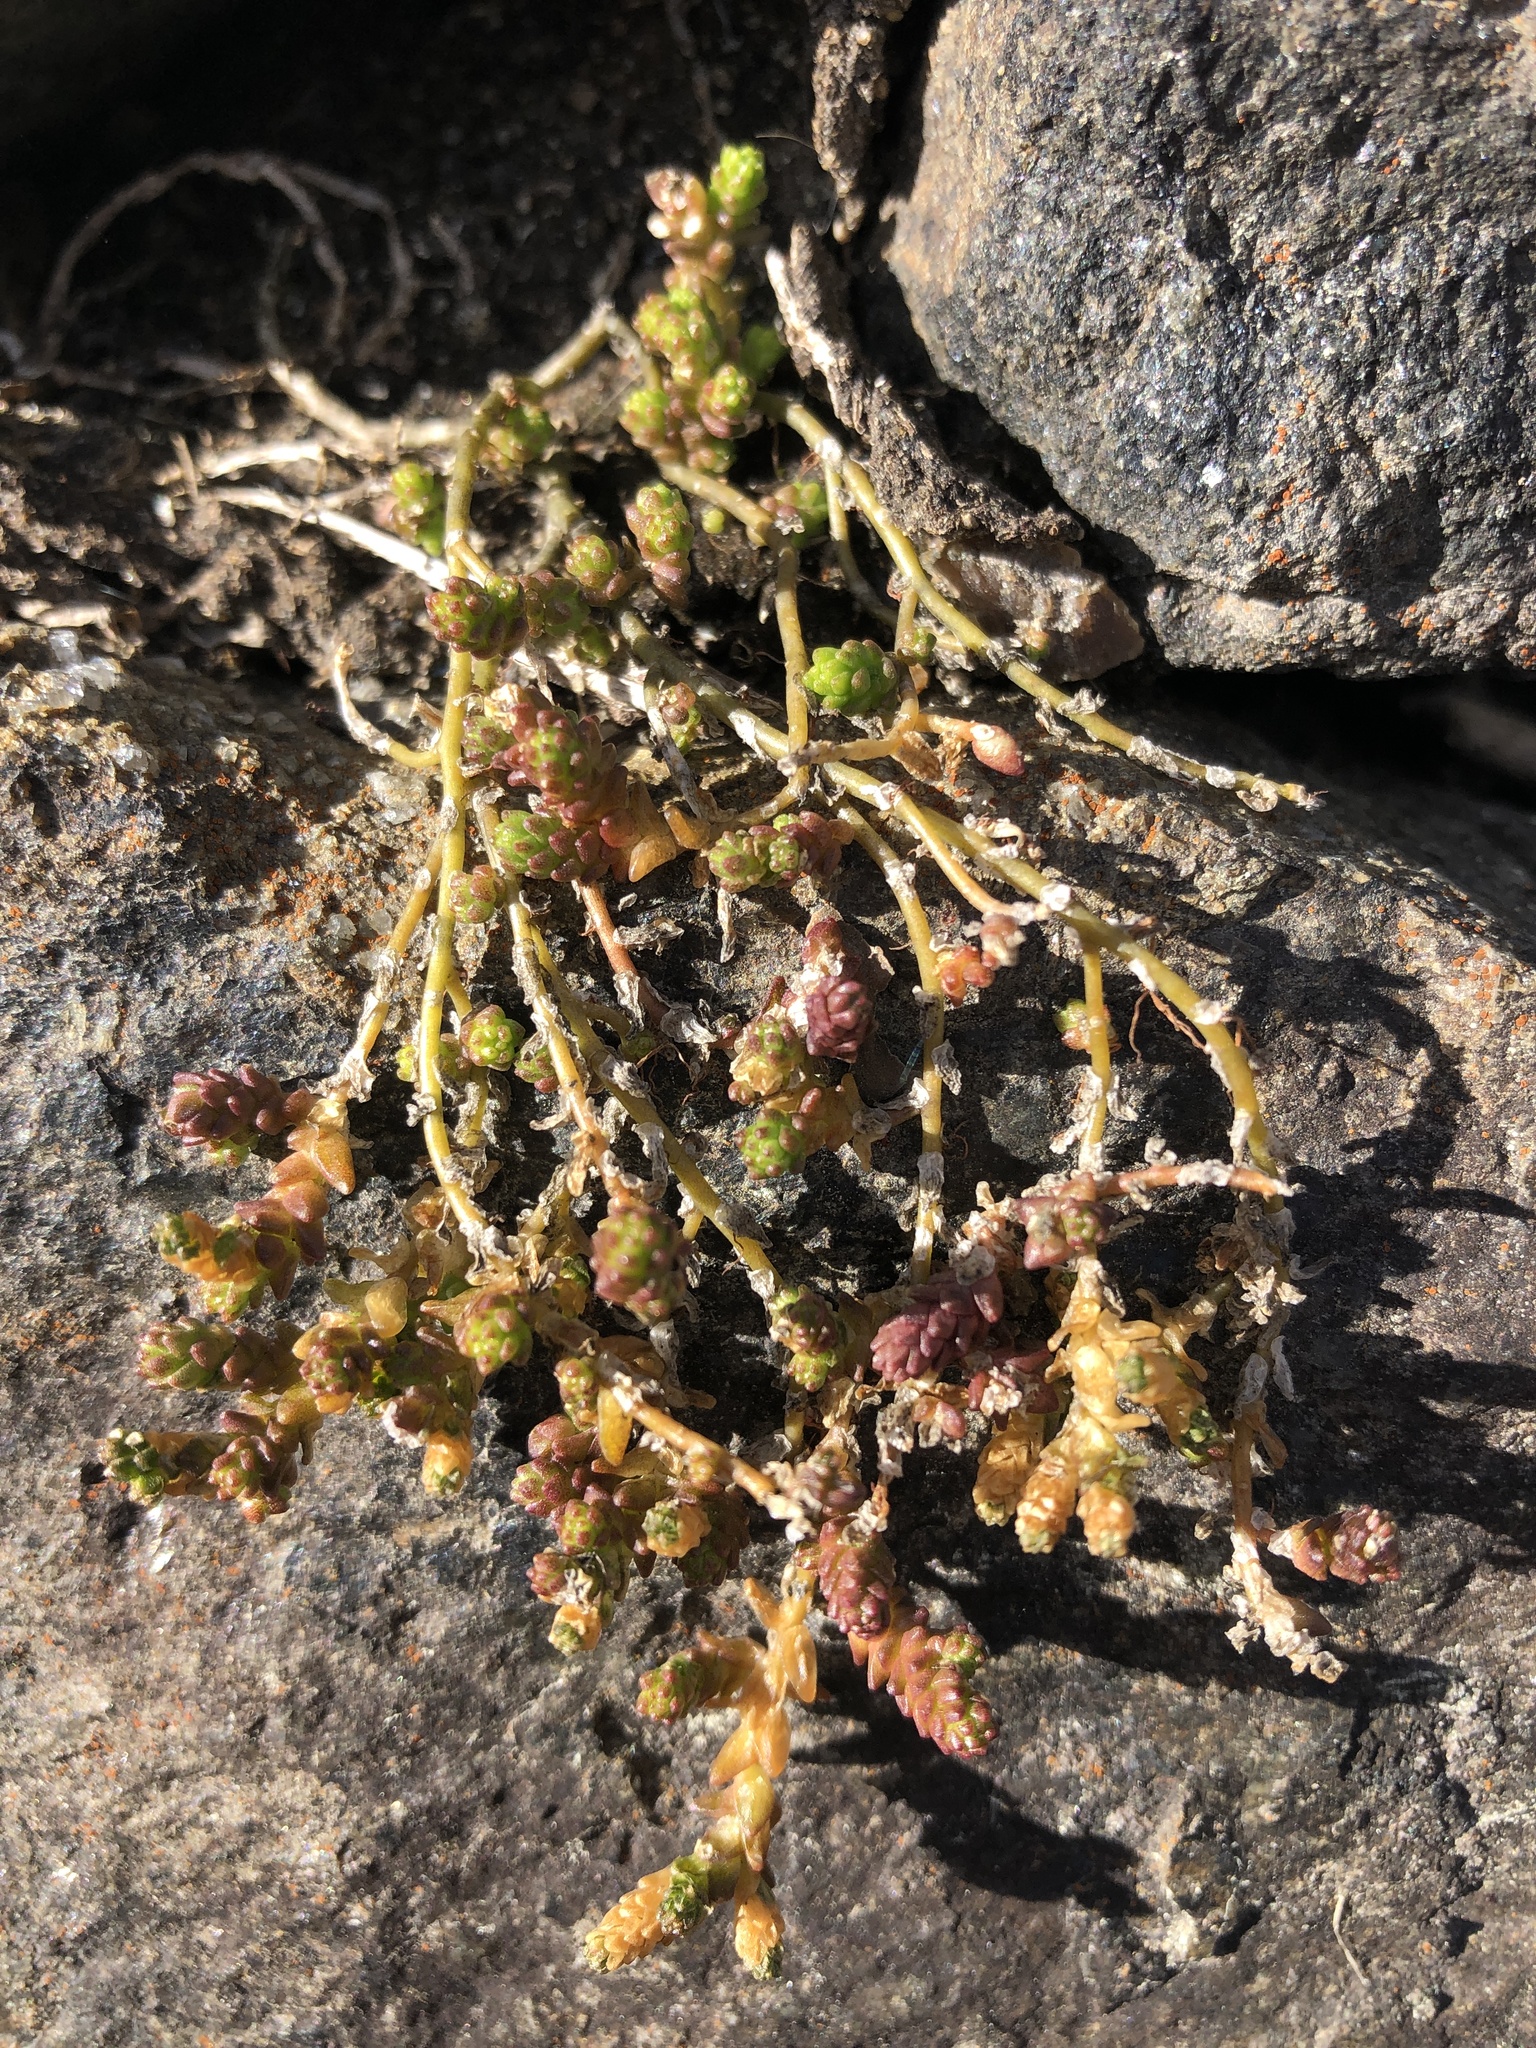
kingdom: Plantae
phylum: Tracheophyta
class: Magnoliopsida
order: Saxifragales
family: Crassulaceae
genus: Sedum
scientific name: Sedum acre
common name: Biting stonecrop
